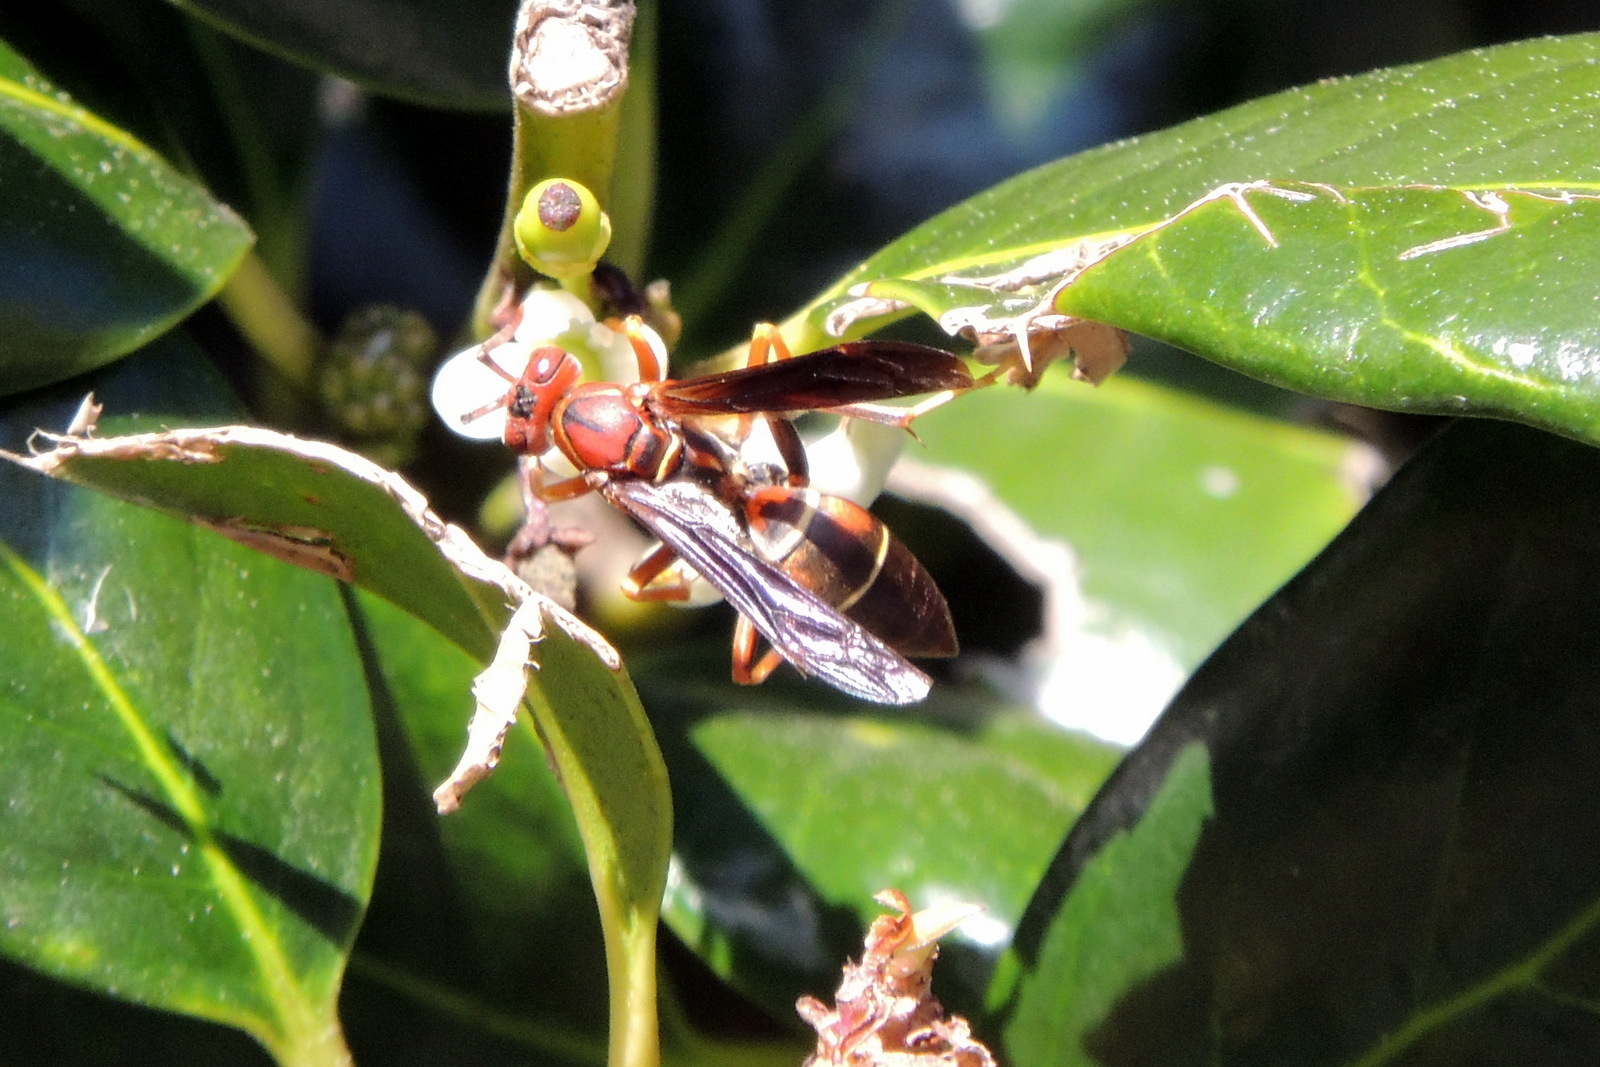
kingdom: Animalia
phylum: Arthropoda
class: Insecta
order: Hymenoptera
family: Eumenidae
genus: Polistes
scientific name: Polistes fuscatus
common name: Dark paper wasp
